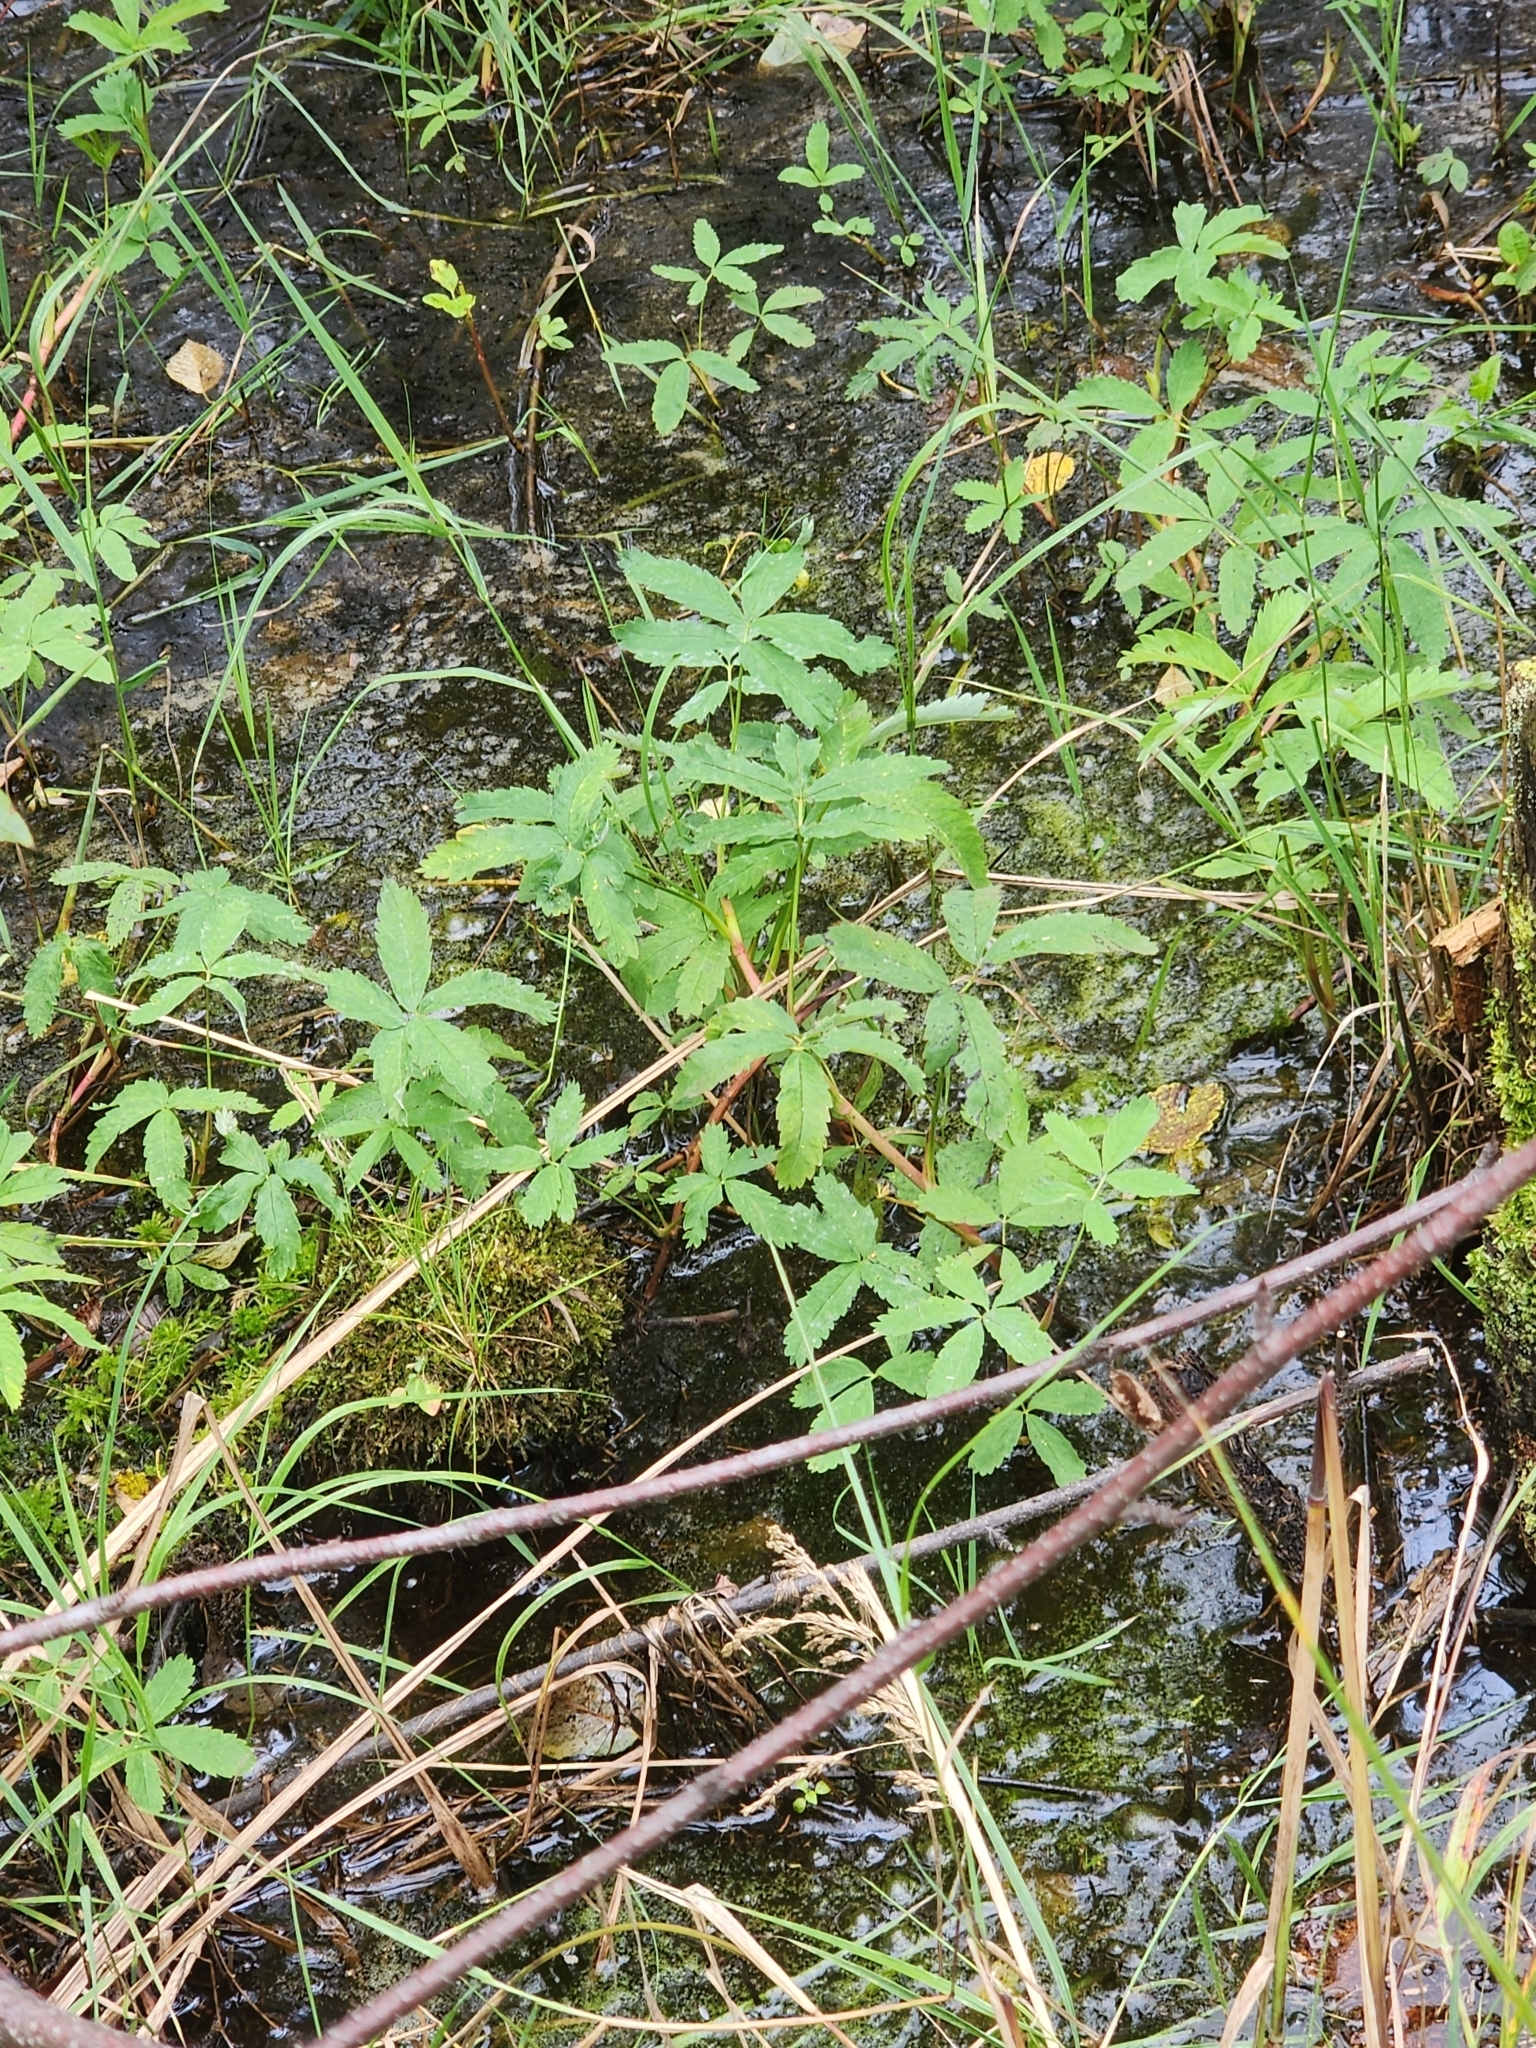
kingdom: Plantae
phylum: Tracheophyta
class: Magnoliopsida
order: Rosales
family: Rosaceae
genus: Comarum
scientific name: Comarum palustre
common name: Marsh cinquefoil
